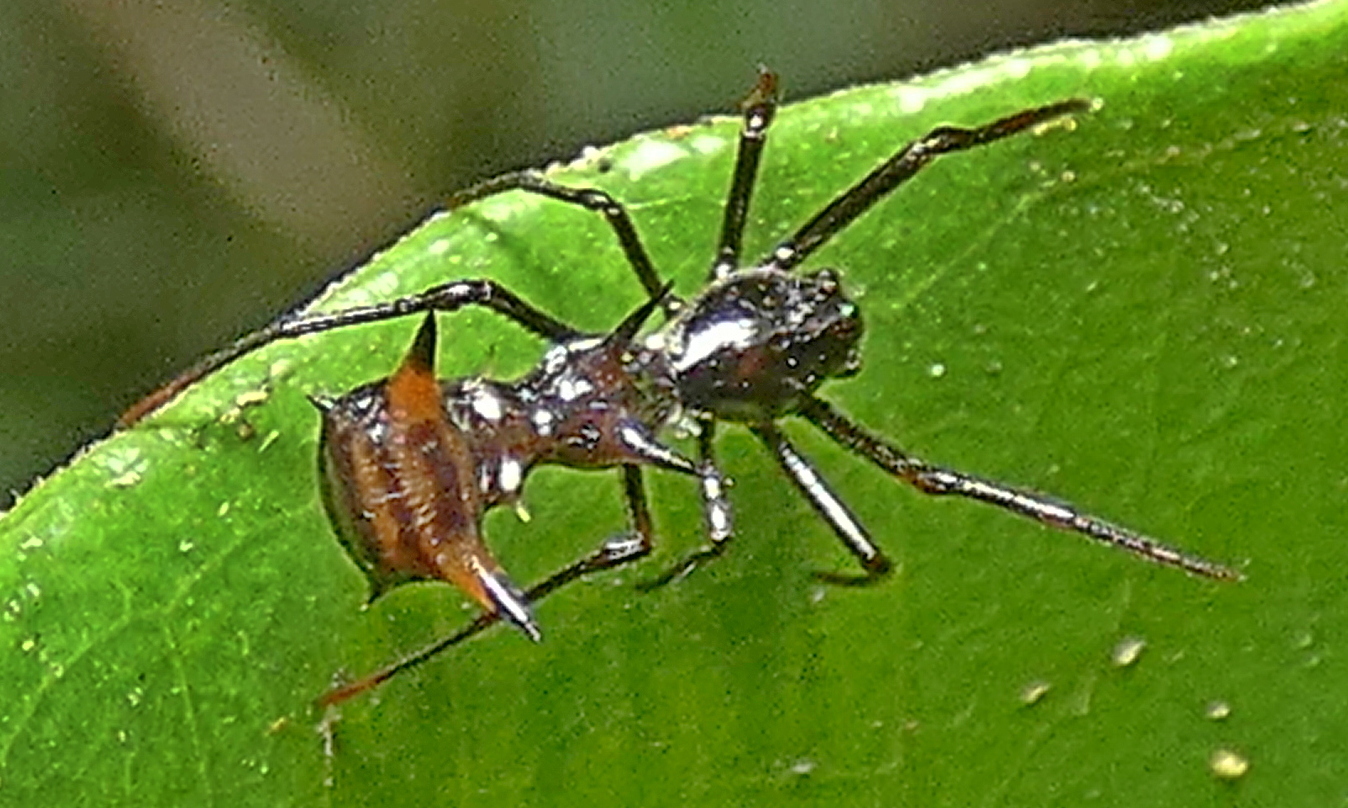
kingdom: Animalia
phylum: Arthropoda
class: Arachnida
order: Araneae
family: Araneidae
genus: Micrathena
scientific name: Micrathena schreibersi
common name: Orb weavers
